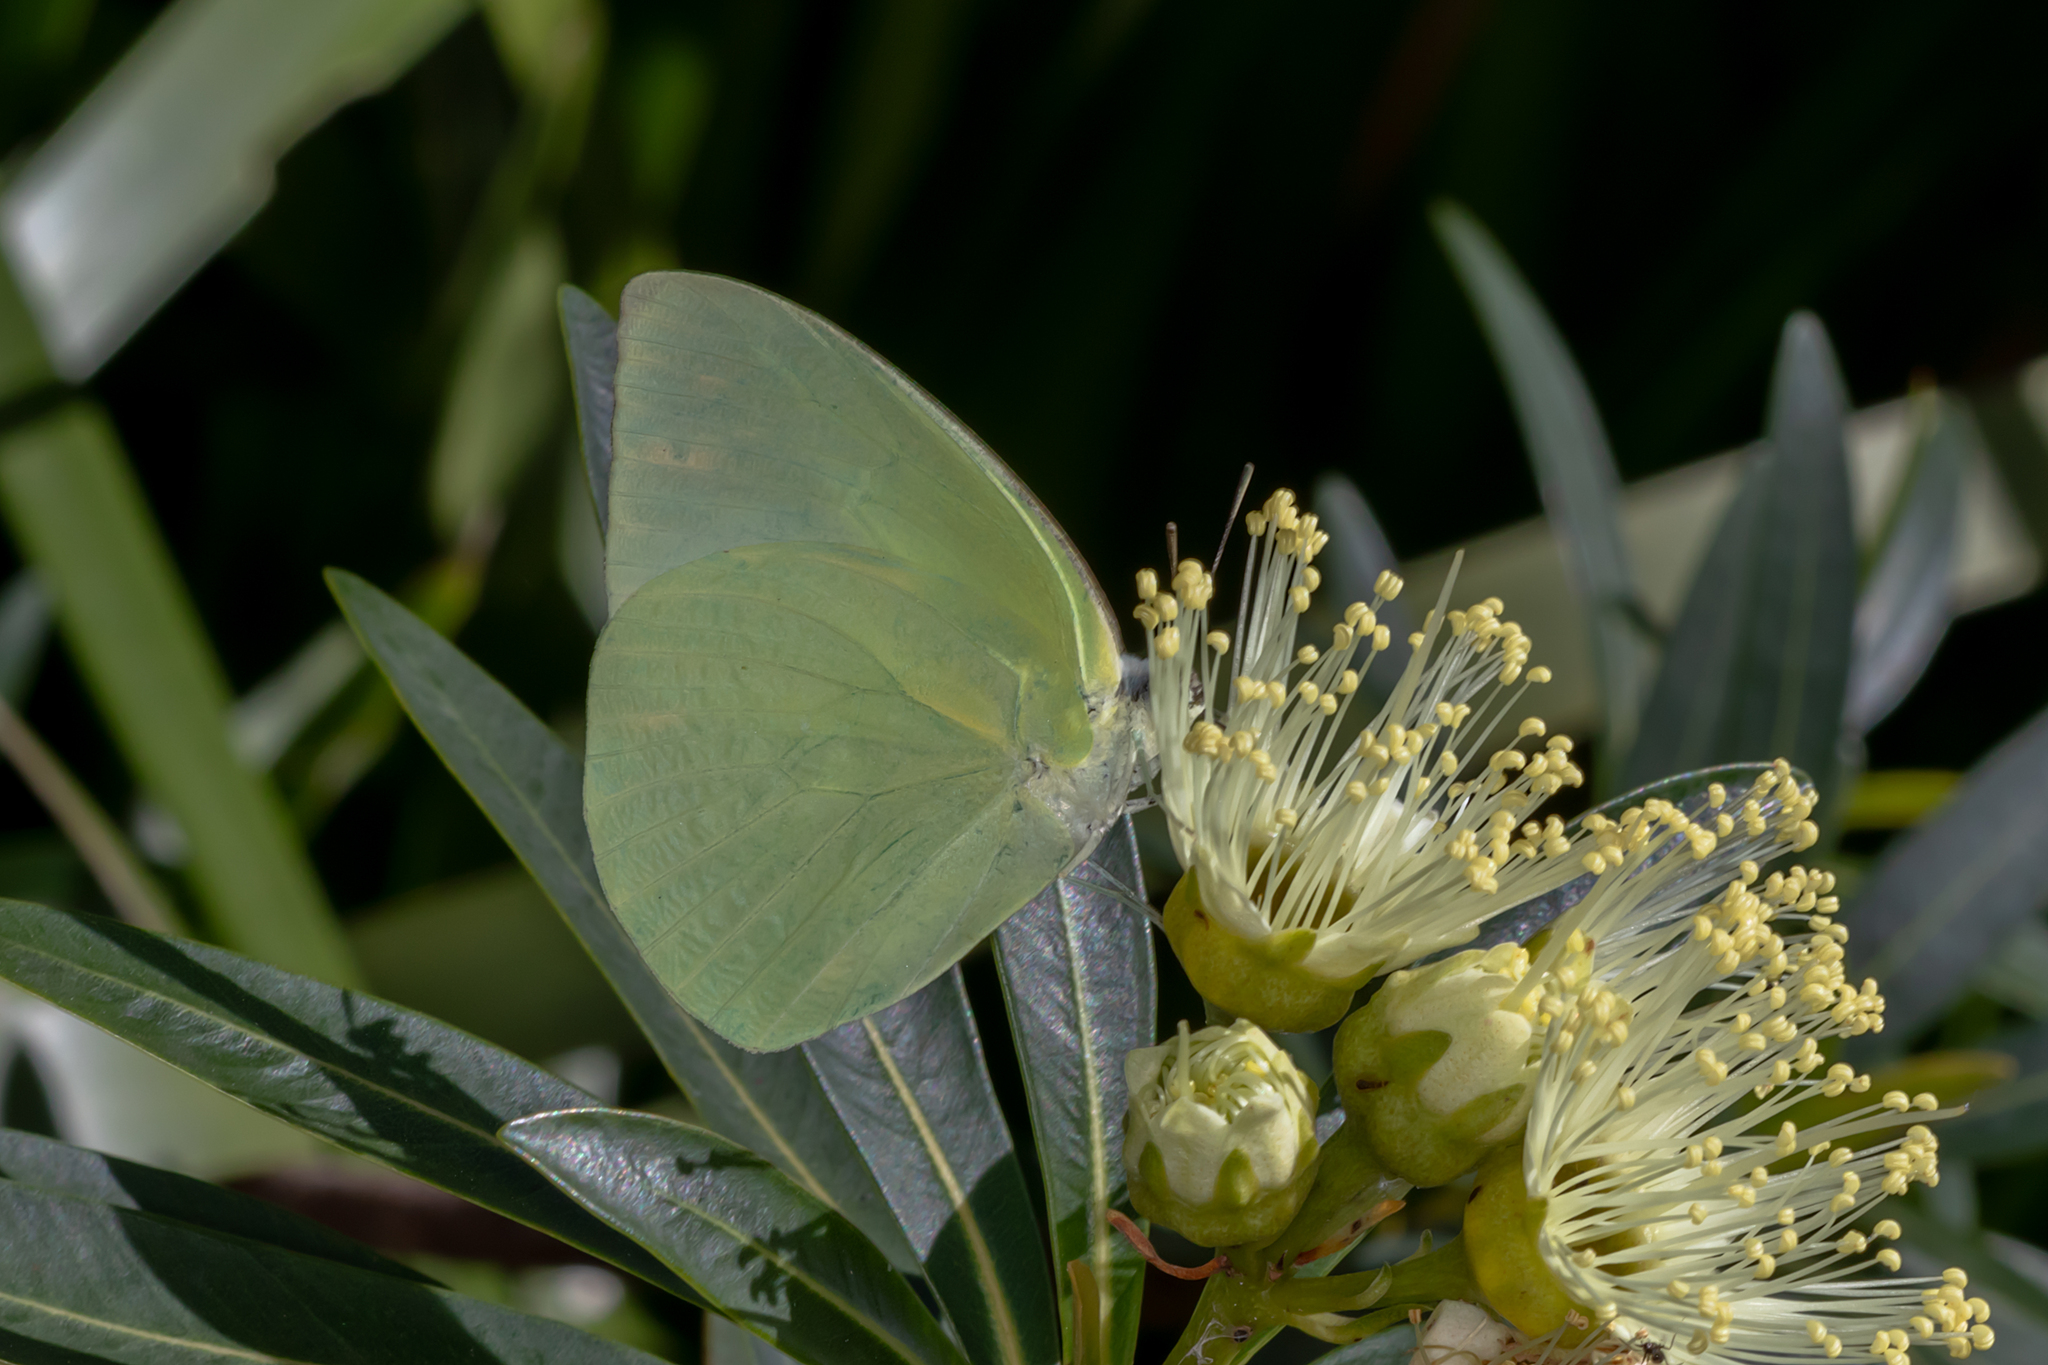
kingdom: Animalia
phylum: Arthropoda
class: Insecta
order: Lepidoptera
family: Pieridae
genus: Catopsilia
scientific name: Catopsilia pomona
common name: Common emigrant
